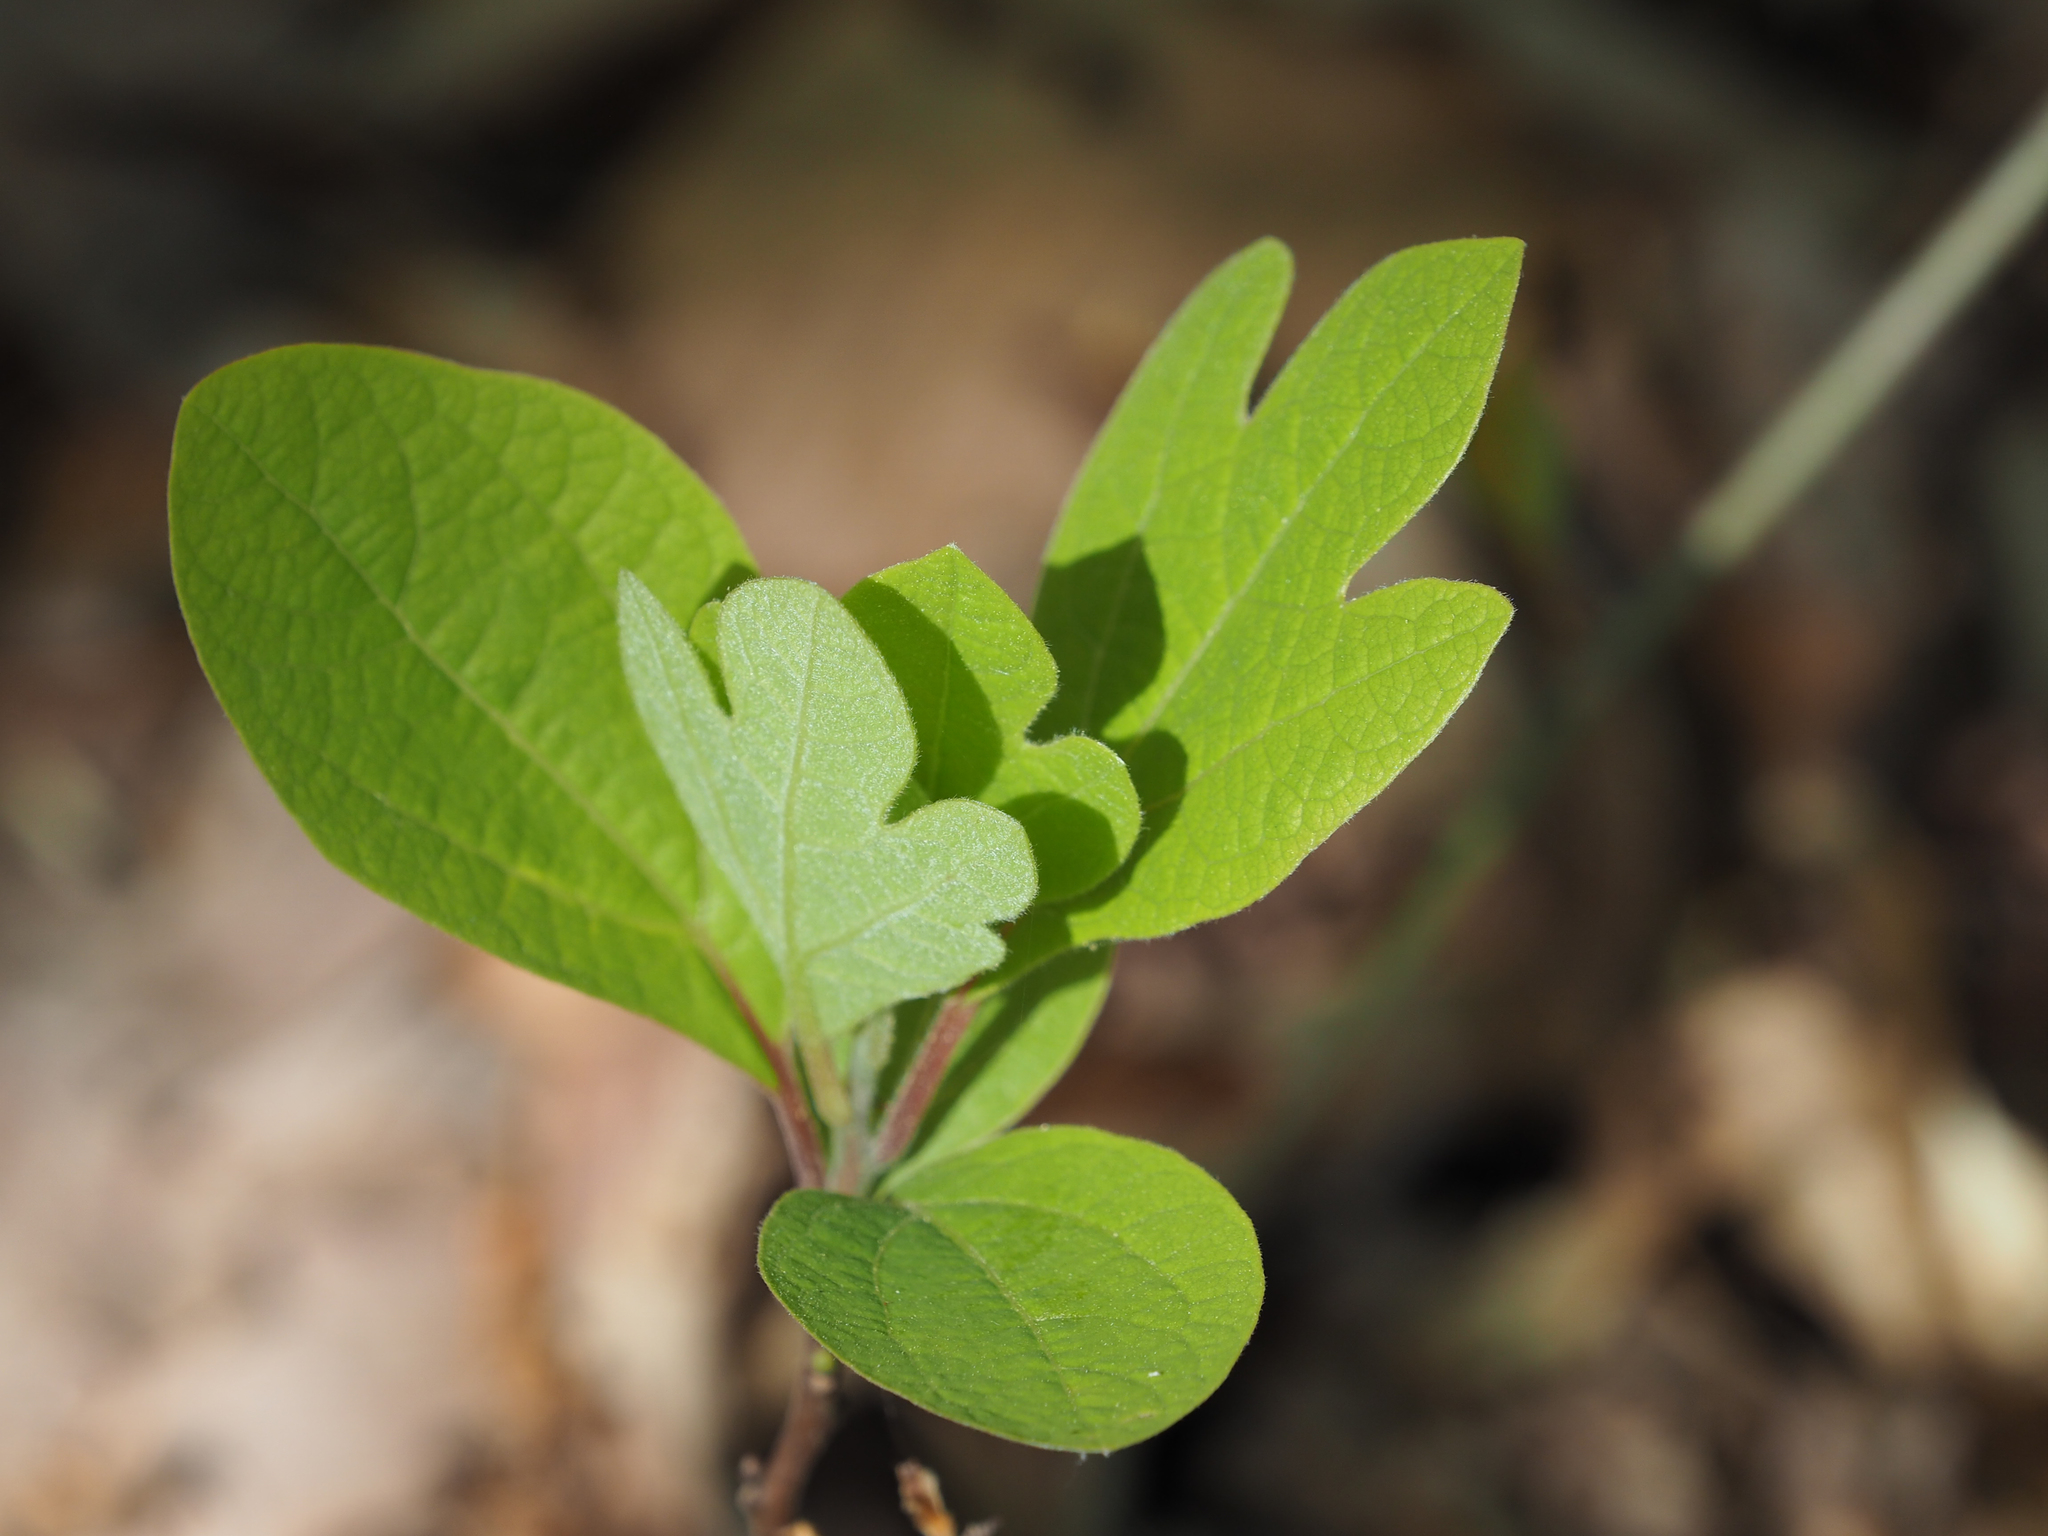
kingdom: Plantae
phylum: Tracheophyta
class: Magnoliopsida
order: Laurales
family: Lauraceae
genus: Sassafras
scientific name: Sassafras albidum
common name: Sassafras
